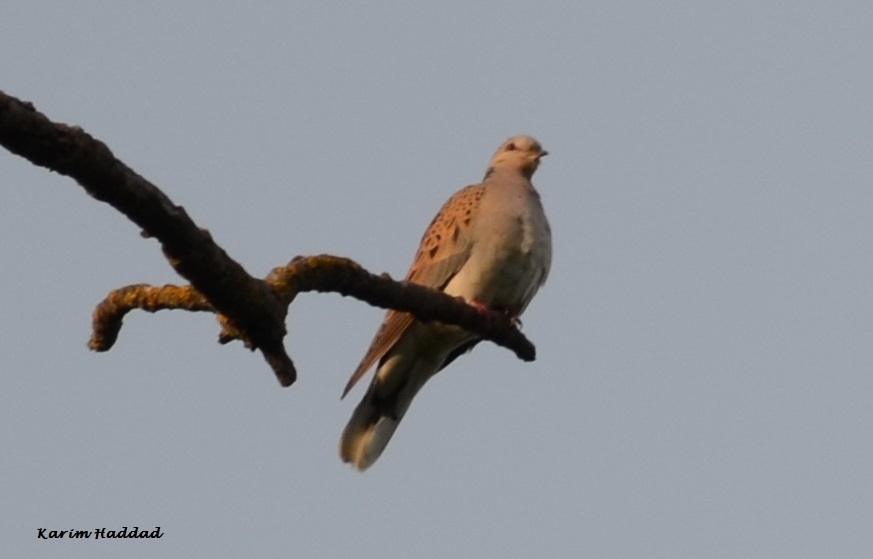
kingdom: Animalia
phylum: Chordata
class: Aves
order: Columbiformes
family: Columbidae
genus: Streptopelia
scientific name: Streptopelia turtur
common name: European turtle dove
